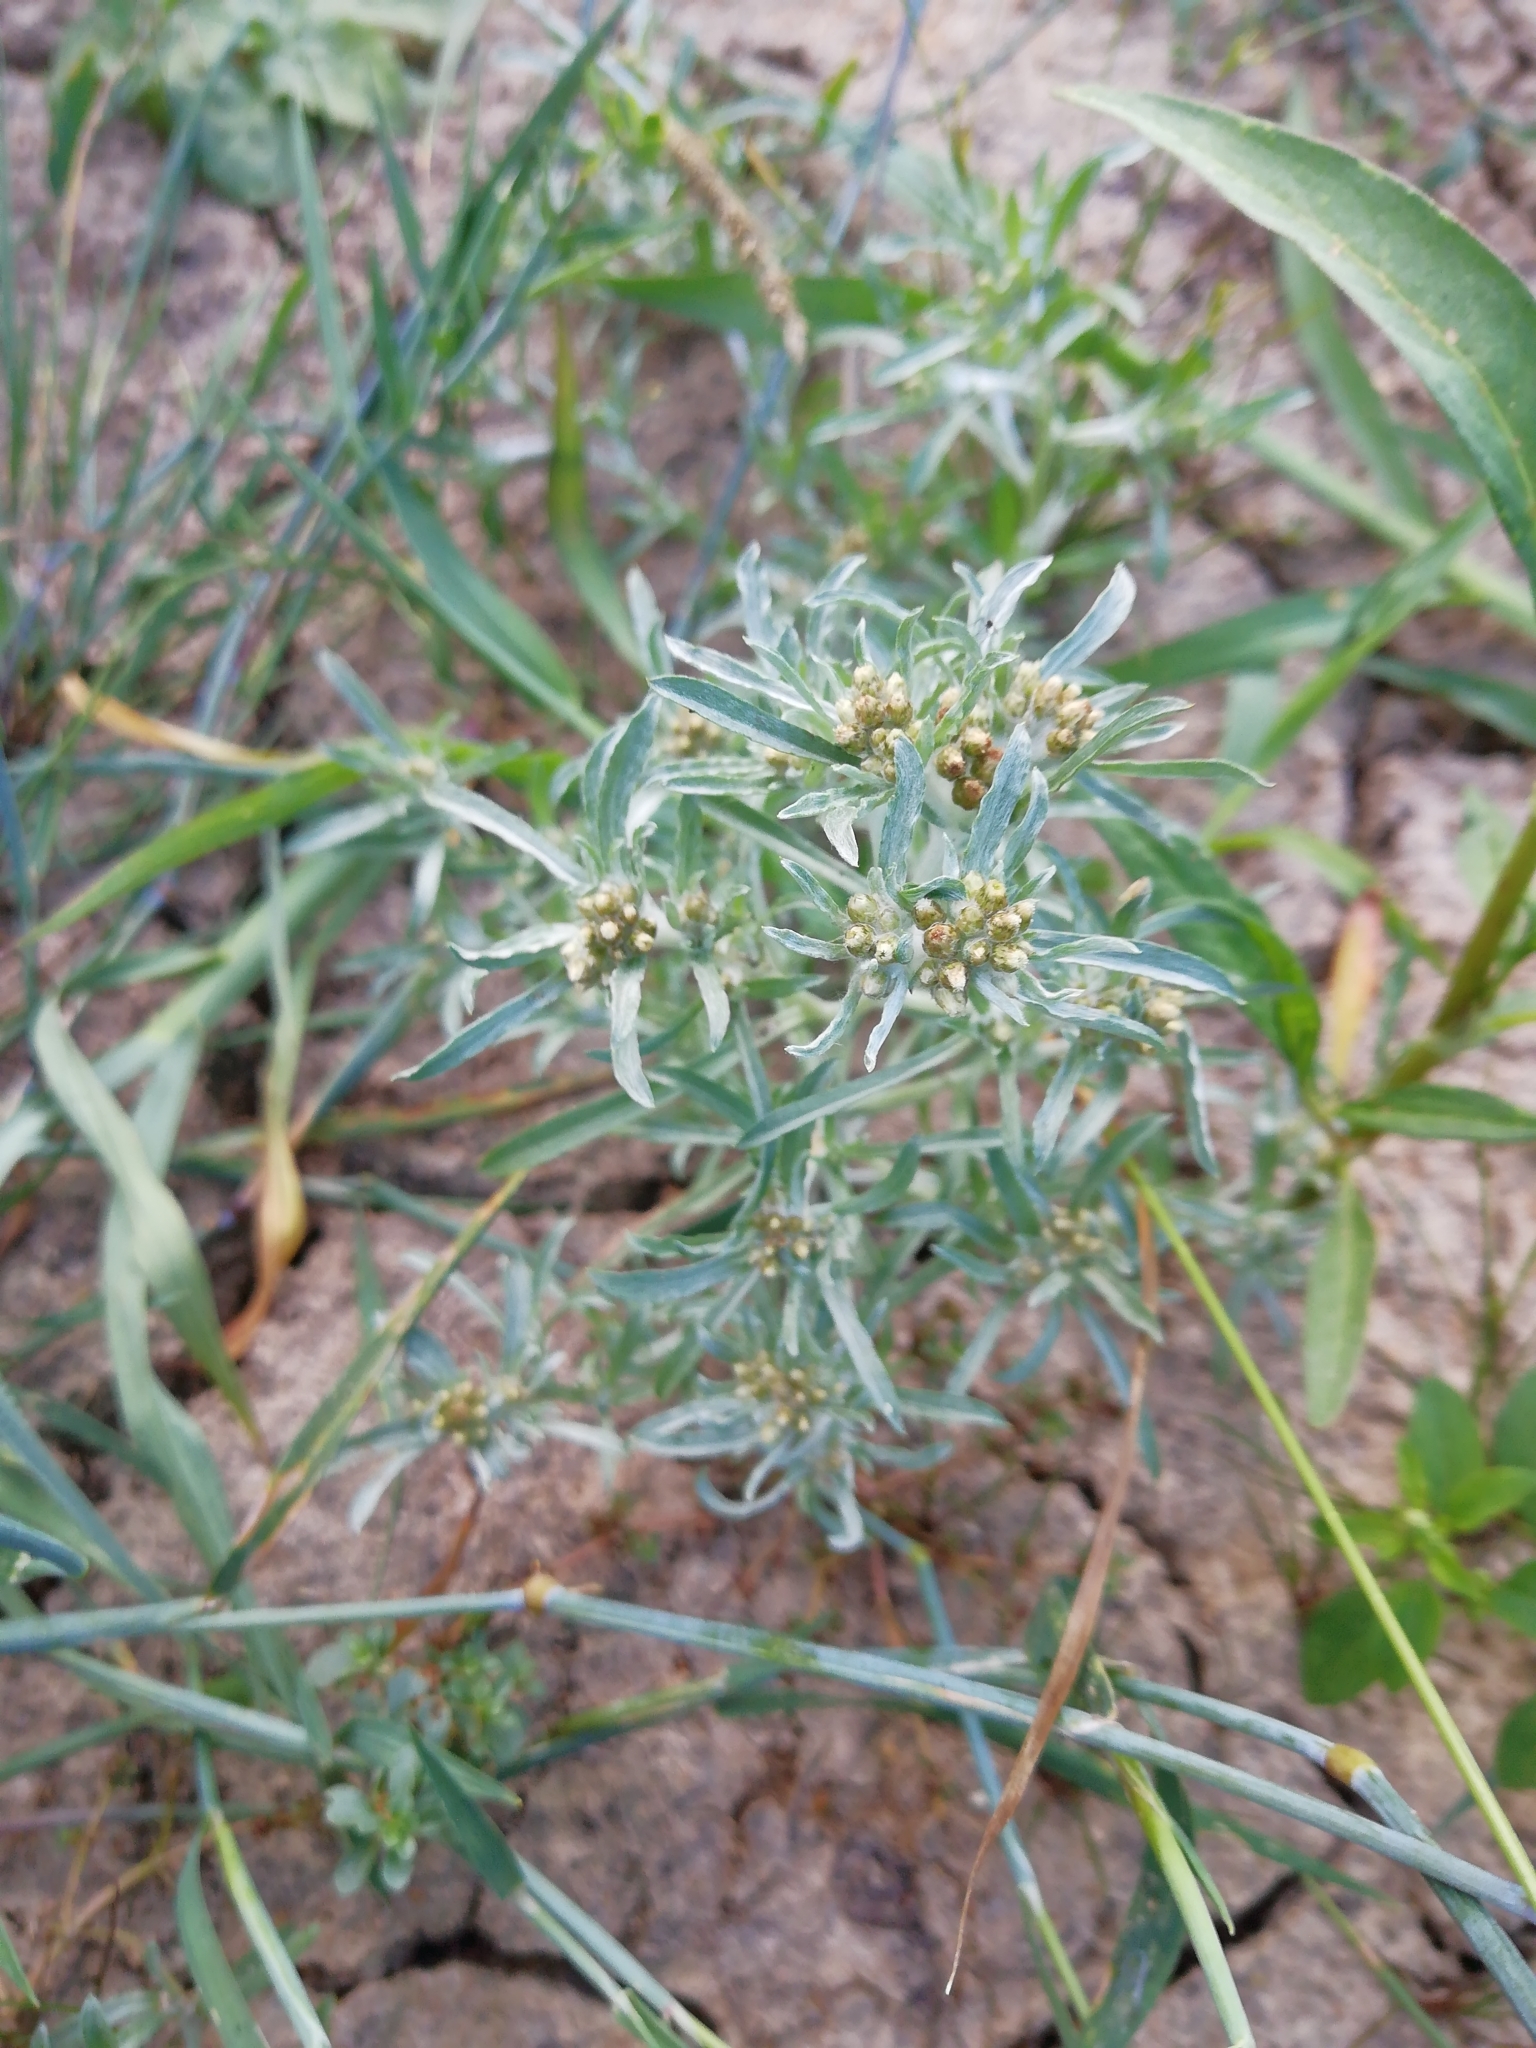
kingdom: Plantae
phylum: Tracheophyta
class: Magnoliopsida
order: Asterales
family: Asteraceae
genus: Gnaphalium
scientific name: Gnaphalium uliginosum
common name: Marsh cudweed
